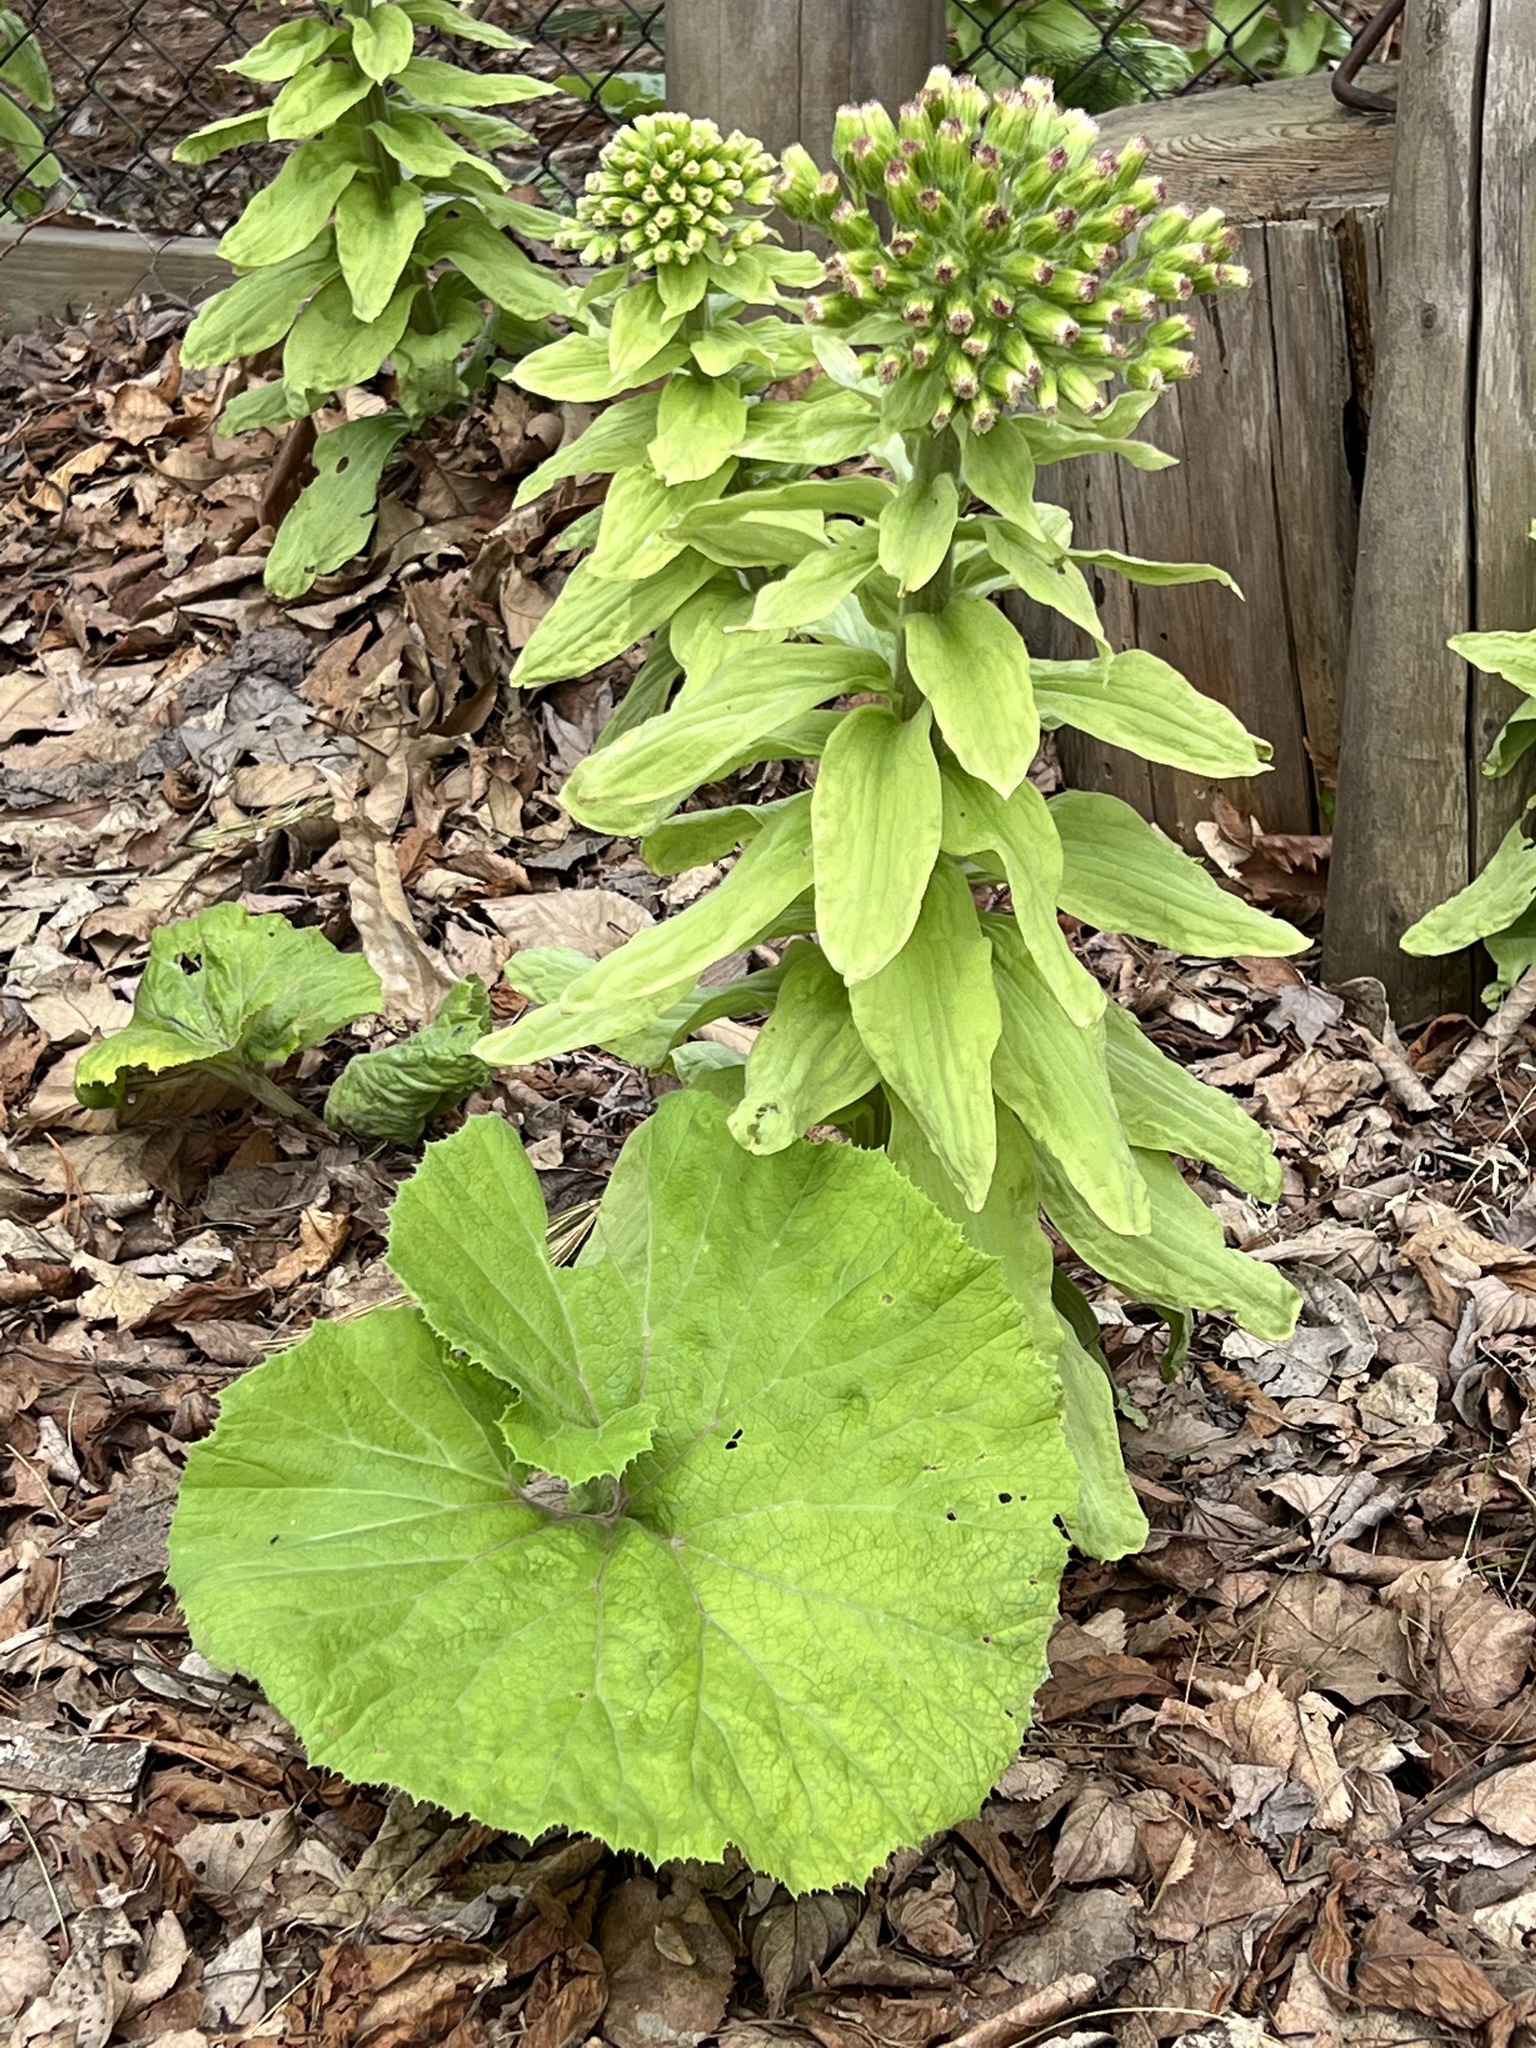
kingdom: Plantae
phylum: Tracheophyta
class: Magnoliopsida
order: Asterales
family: Asteraceae
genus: Petasites
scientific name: Petasites japonicus
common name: Giant butterbur
